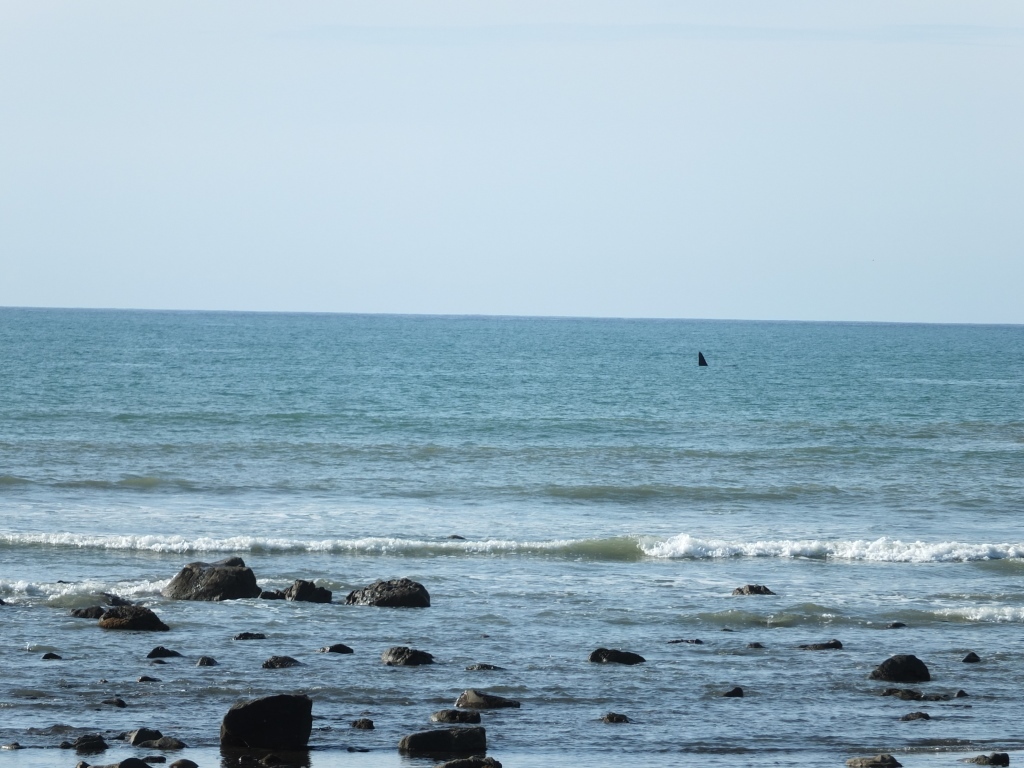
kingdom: Animalia
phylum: Chordata
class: Mammalia
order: Cetacea
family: Delphinidae
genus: Orcinus
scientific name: Orcinus orca
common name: Killer whale
